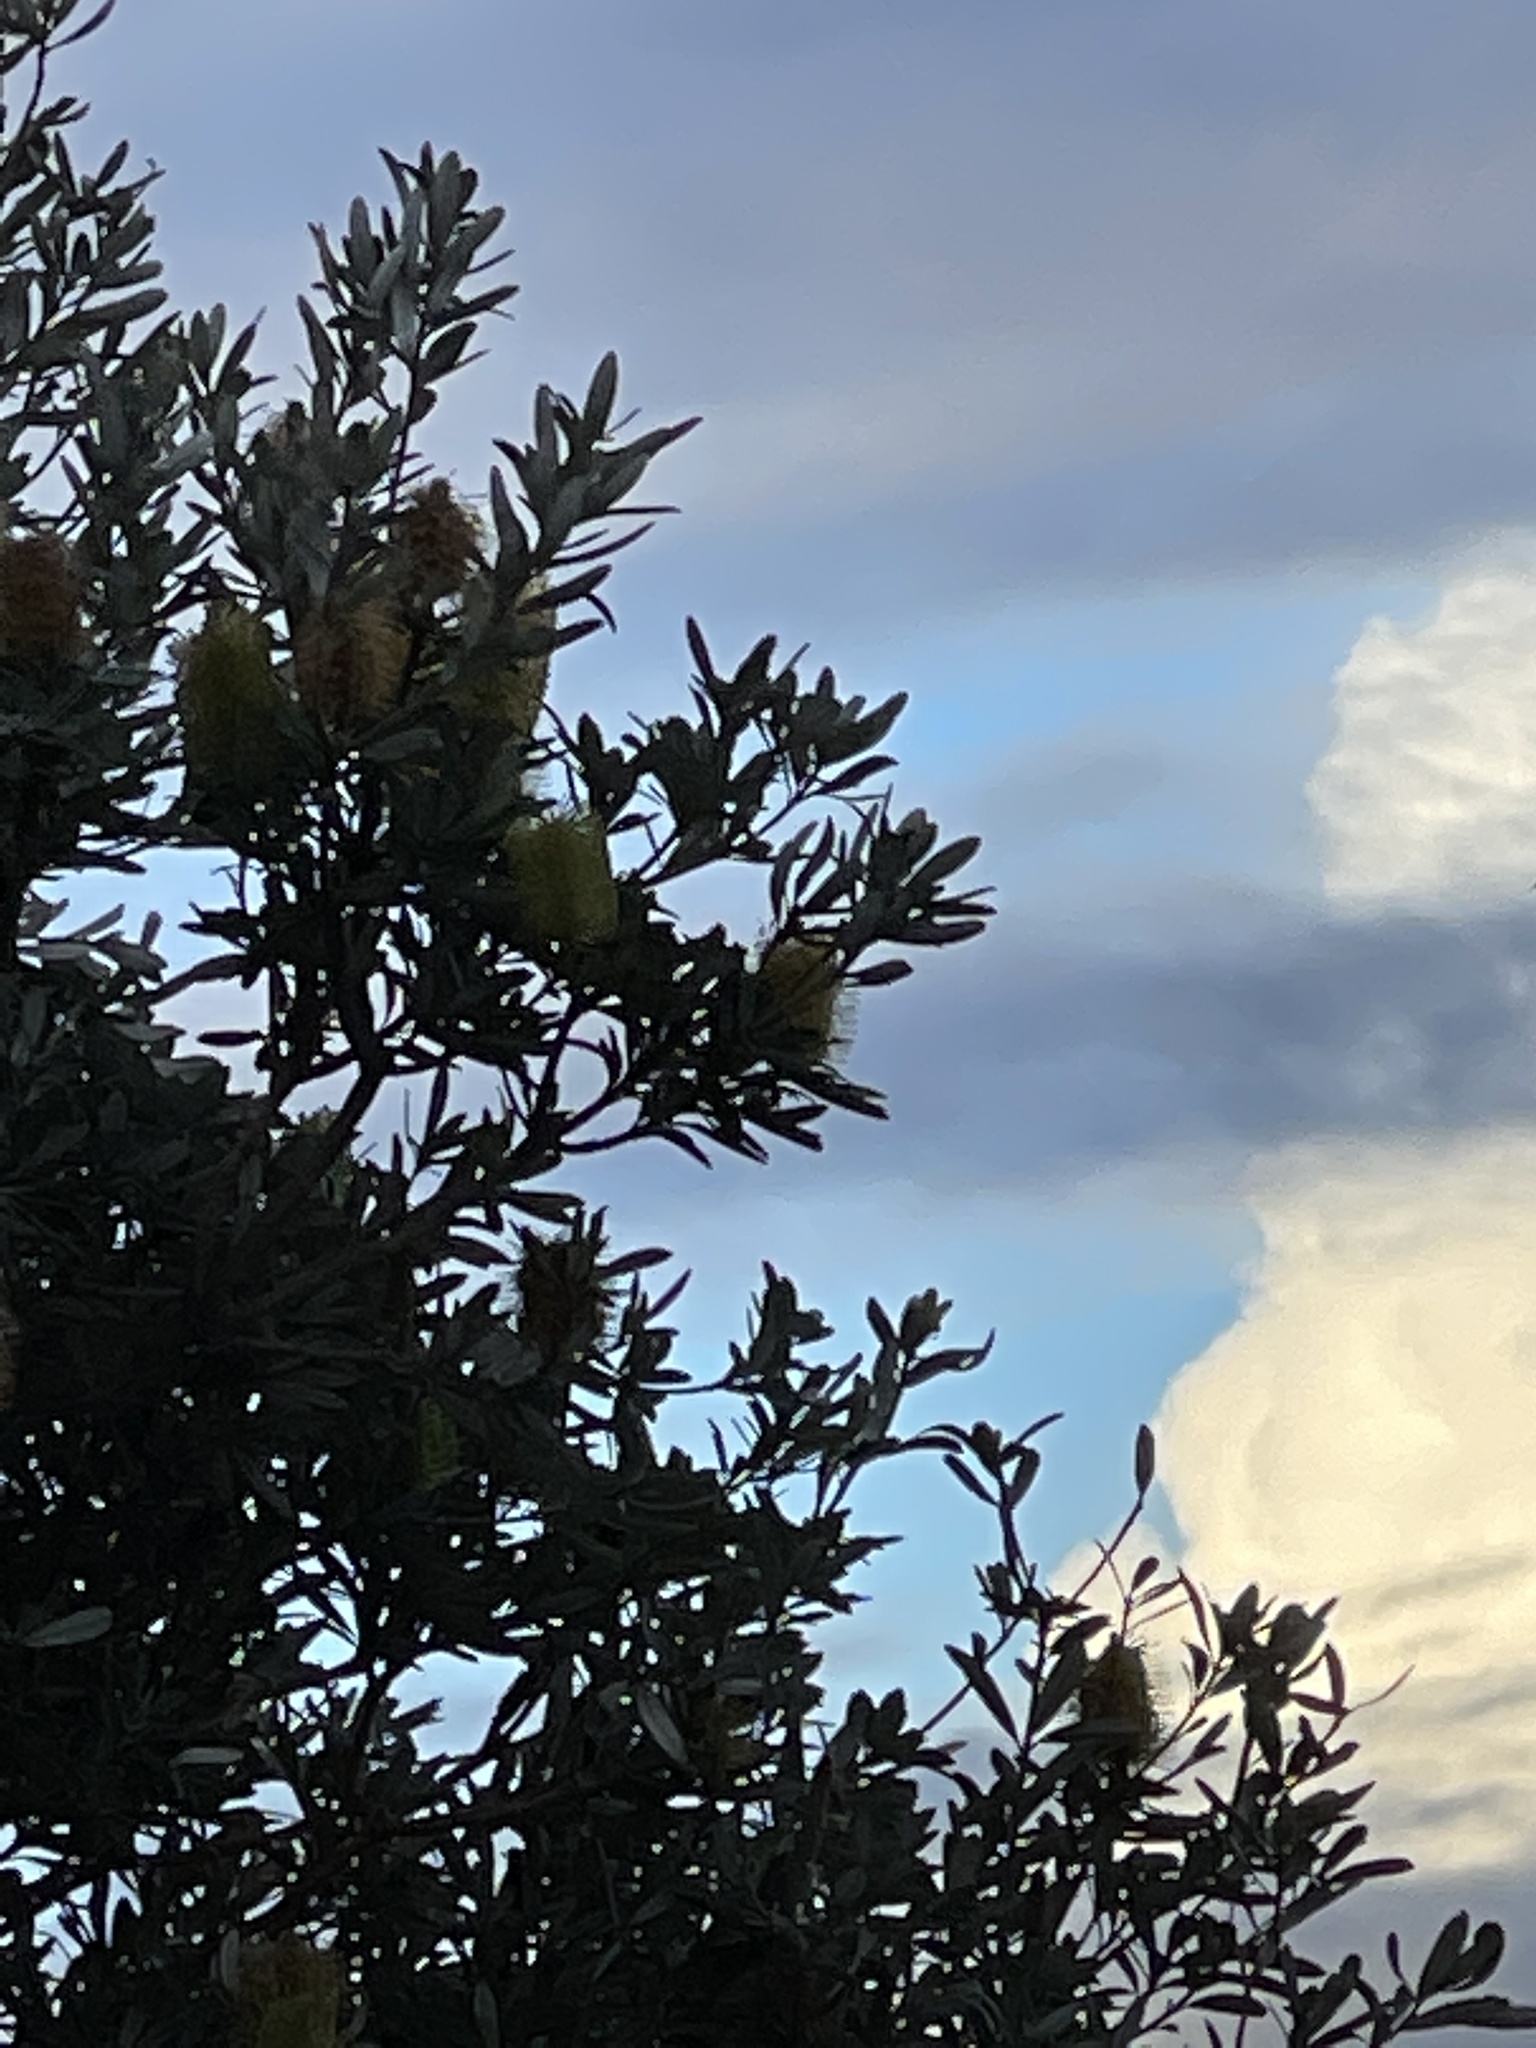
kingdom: Animalia
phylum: Chordata
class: Aves
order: Passeriformes
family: Meliphagidae
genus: Anthochaera
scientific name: Anthochaera carunculata
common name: Red wattlebird
